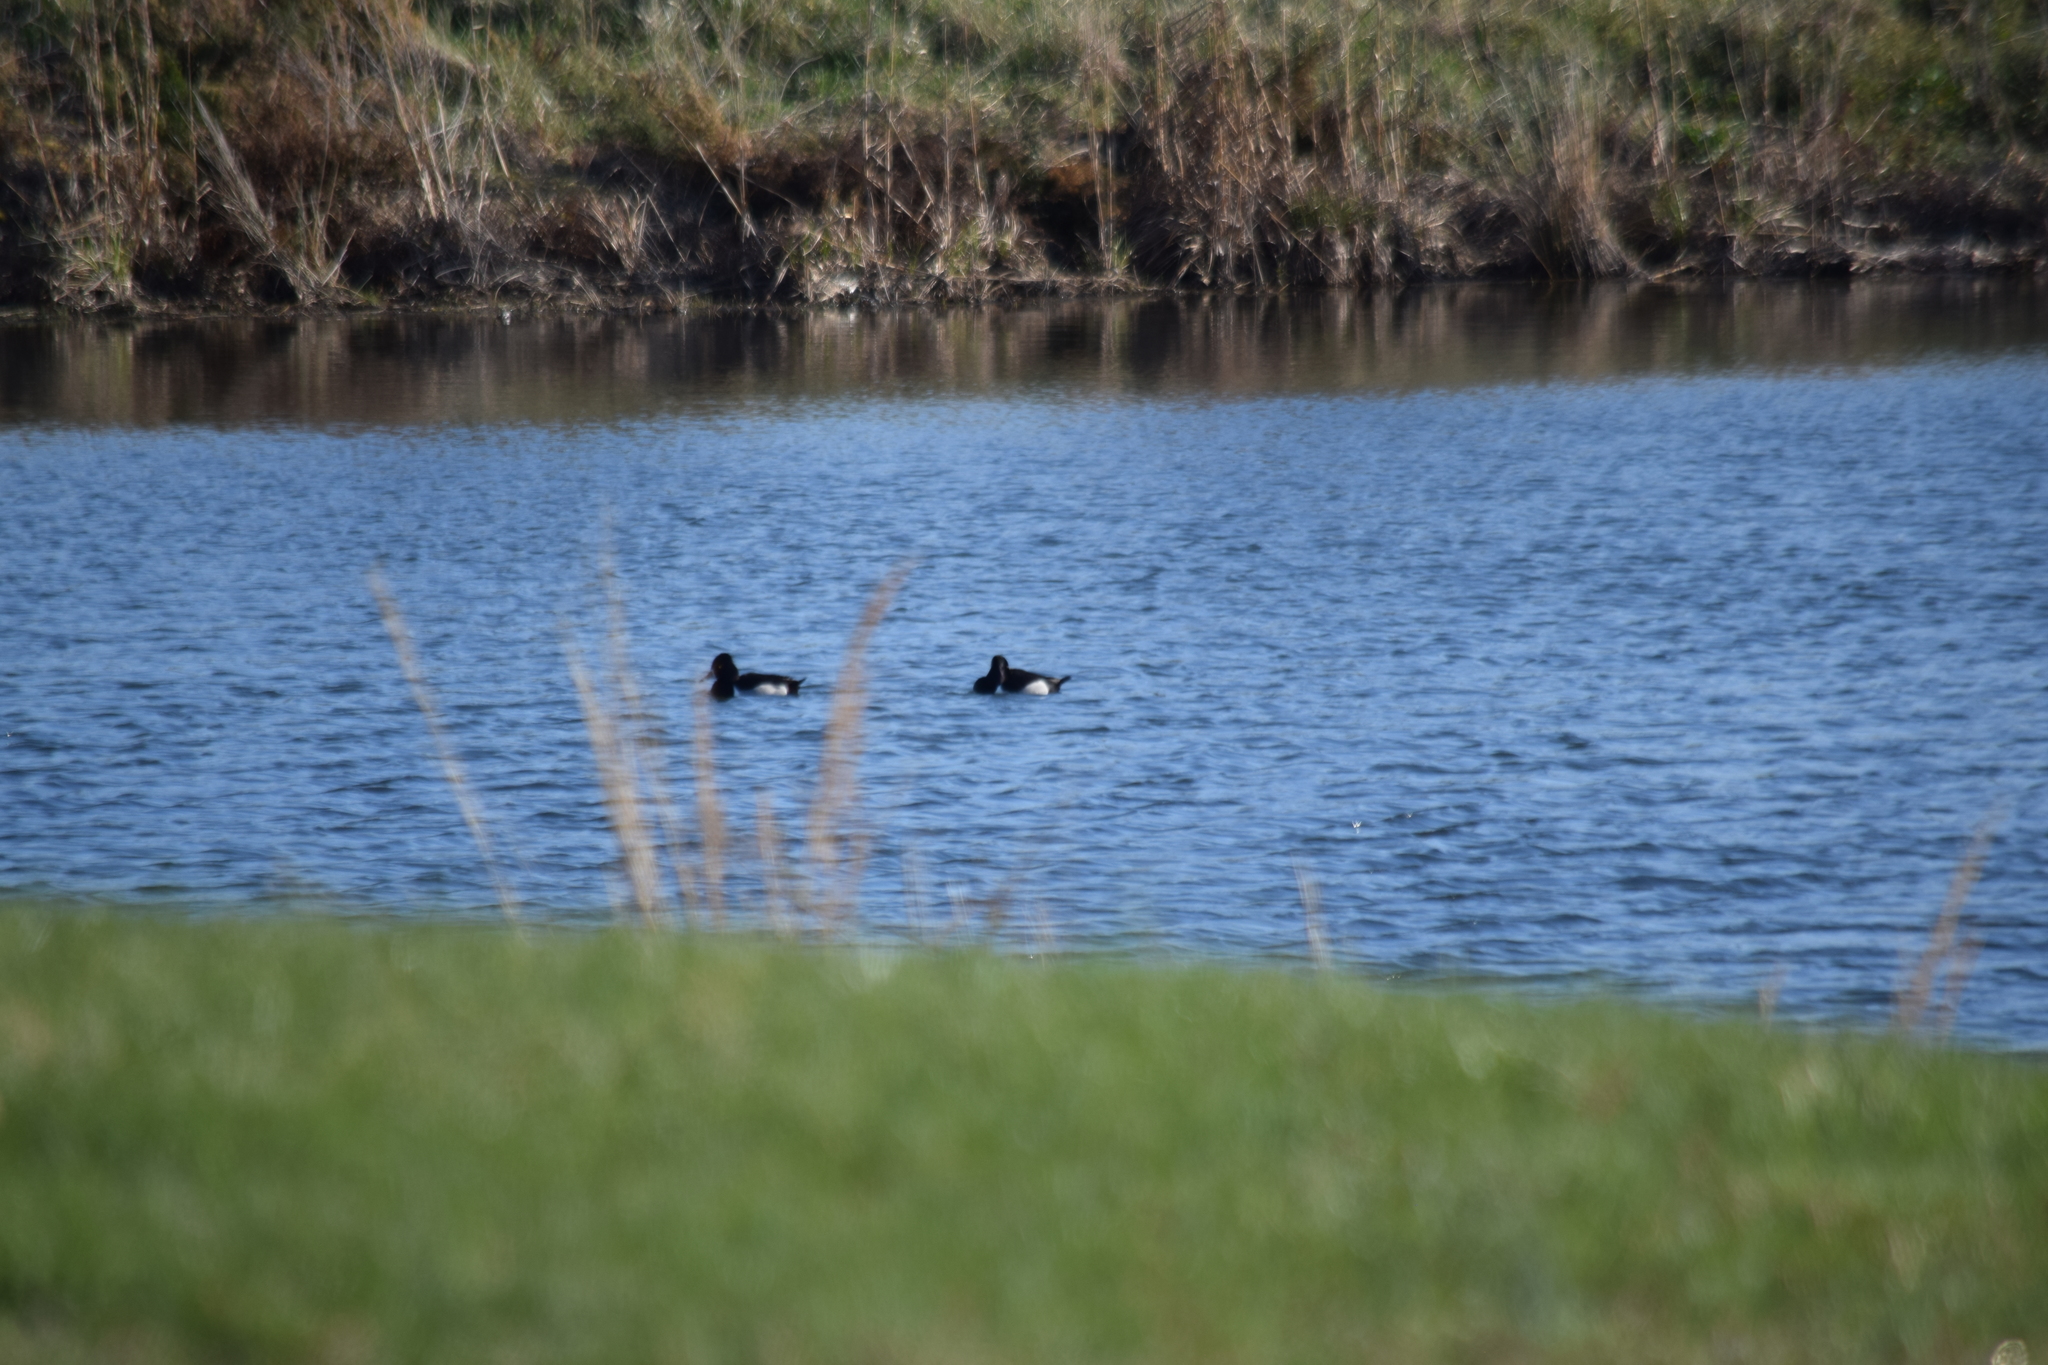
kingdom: Animalia
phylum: Chordata
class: Aves
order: Anseriformes
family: Anatidae
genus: Aythya
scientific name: Aythya collaris
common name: Ring-necked duck
